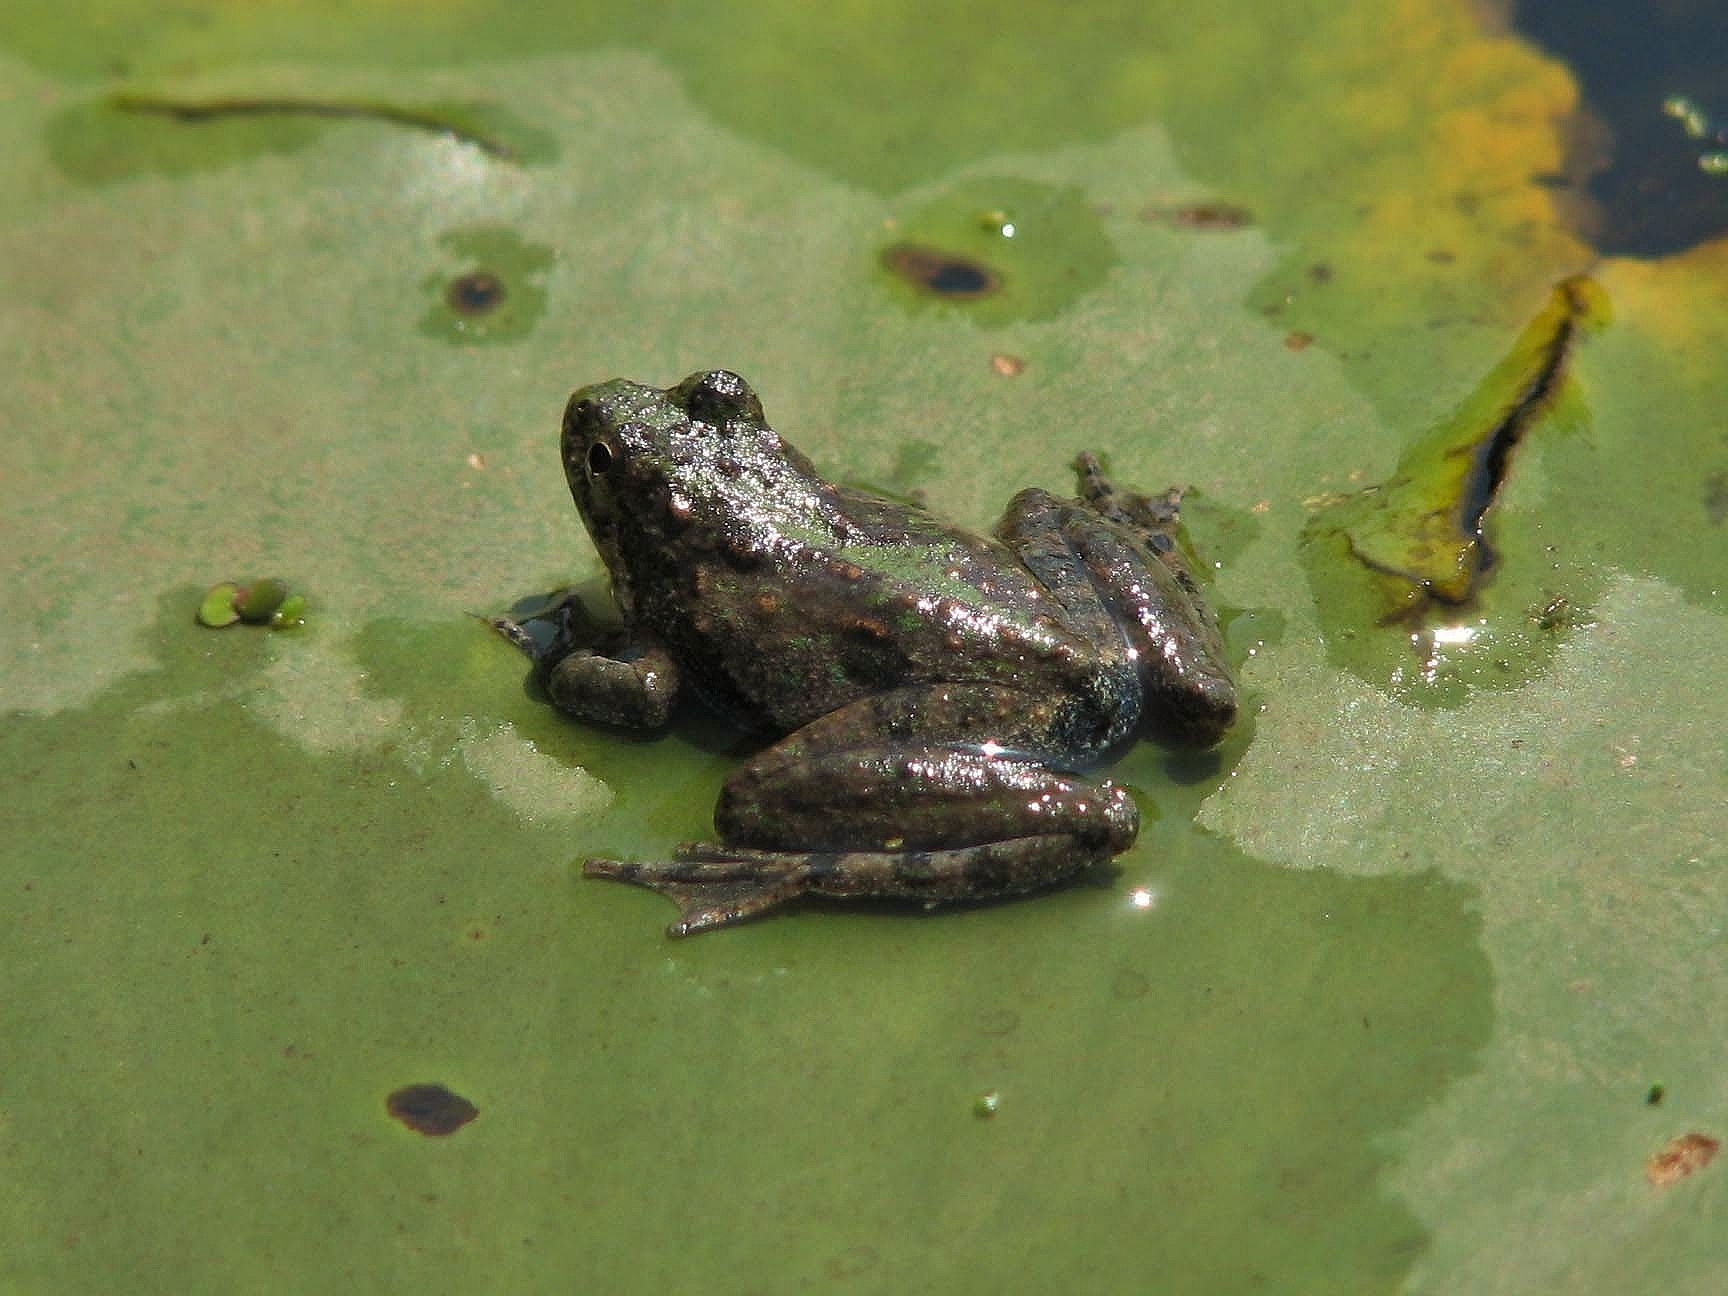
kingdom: Animalia
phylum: Chordata
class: Amphibia
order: Anura
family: Hylidae
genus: Acris
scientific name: Acris blanchardi
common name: Blanchard's cricket frog
